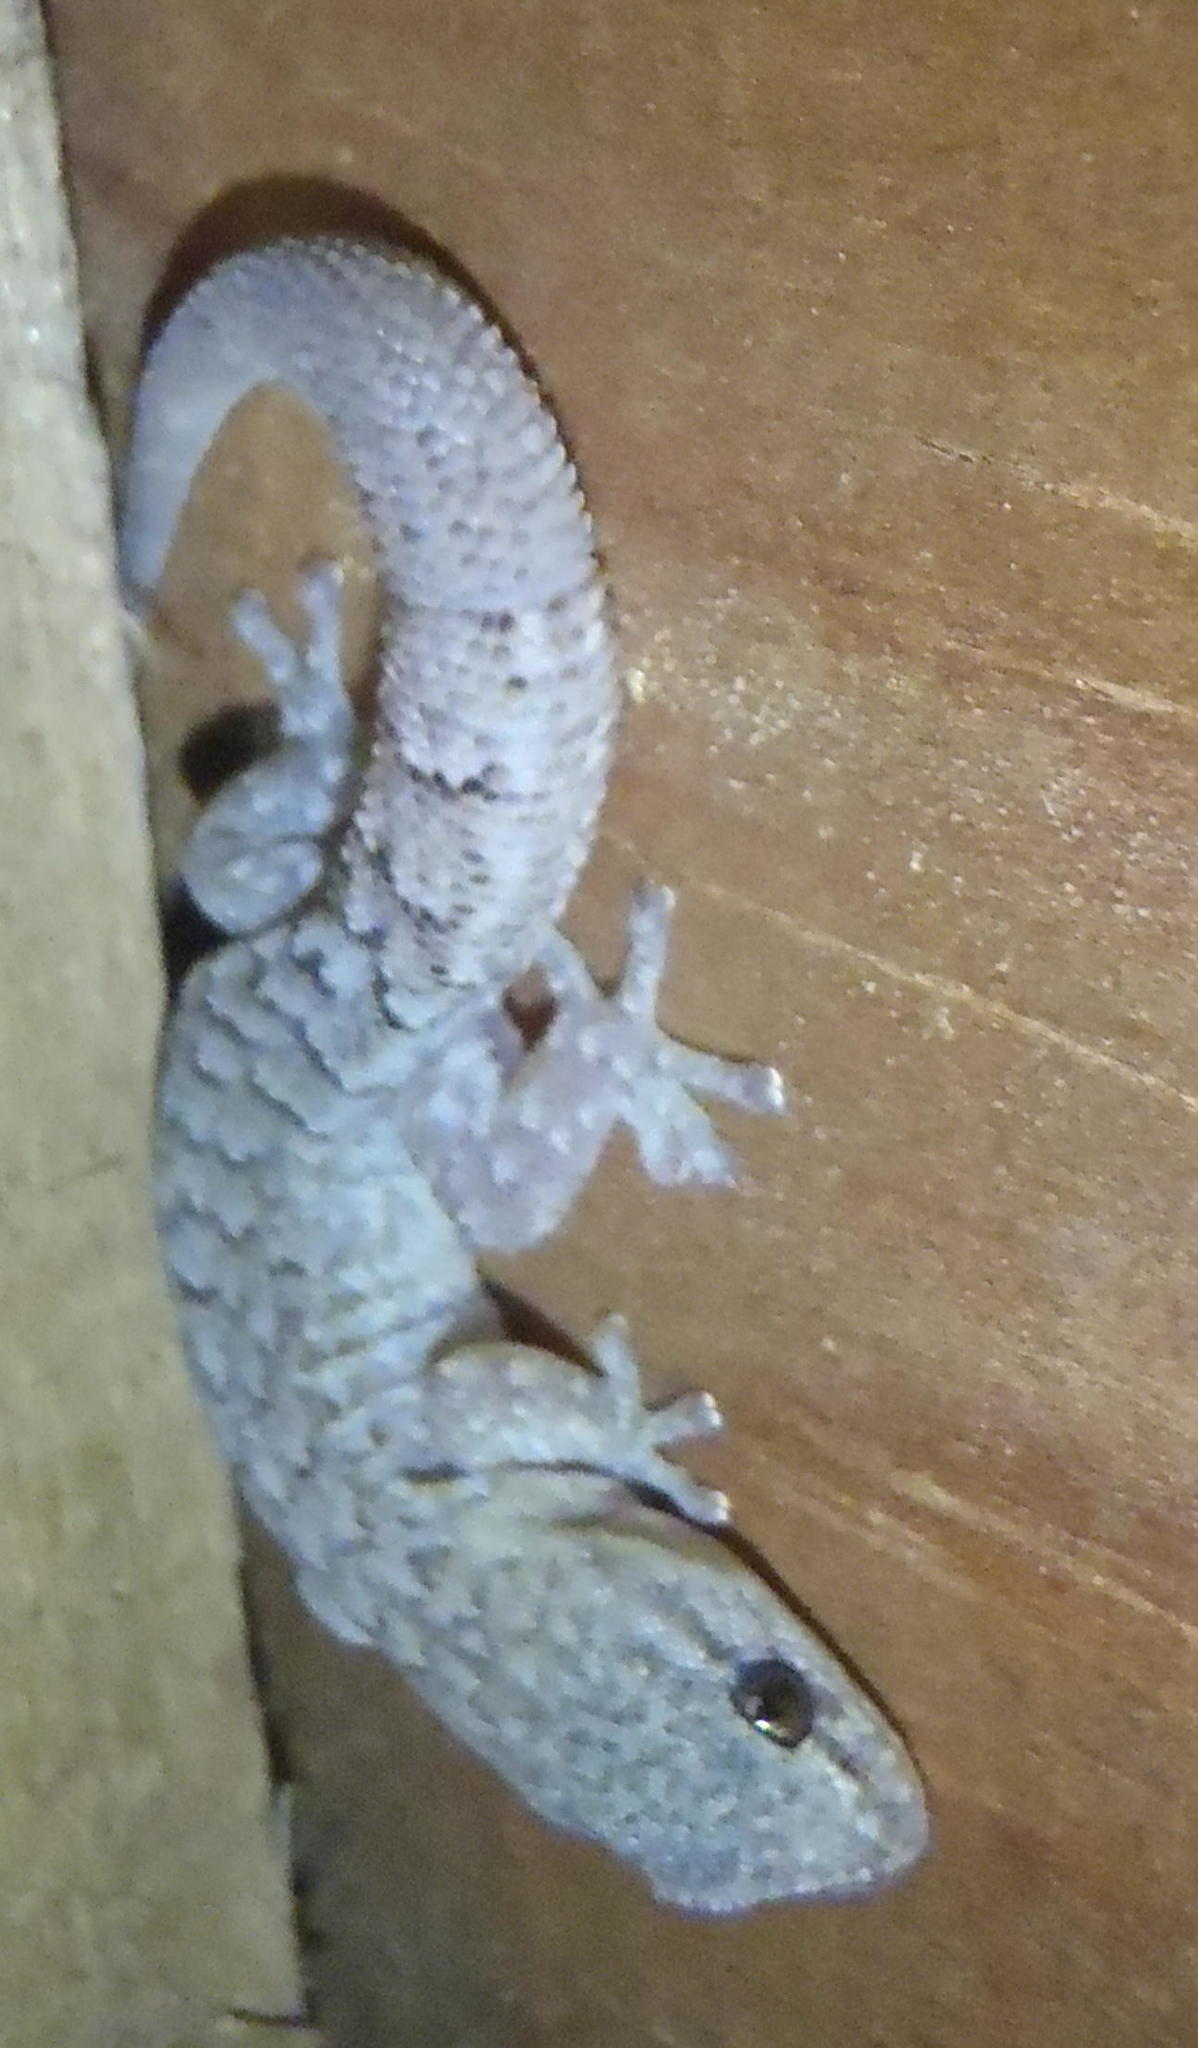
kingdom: Animalia
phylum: Chordata
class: Squamata
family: Gekkonidae
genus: Goggia
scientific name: Goggia incognita
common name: Cryptic pygmy gecko
